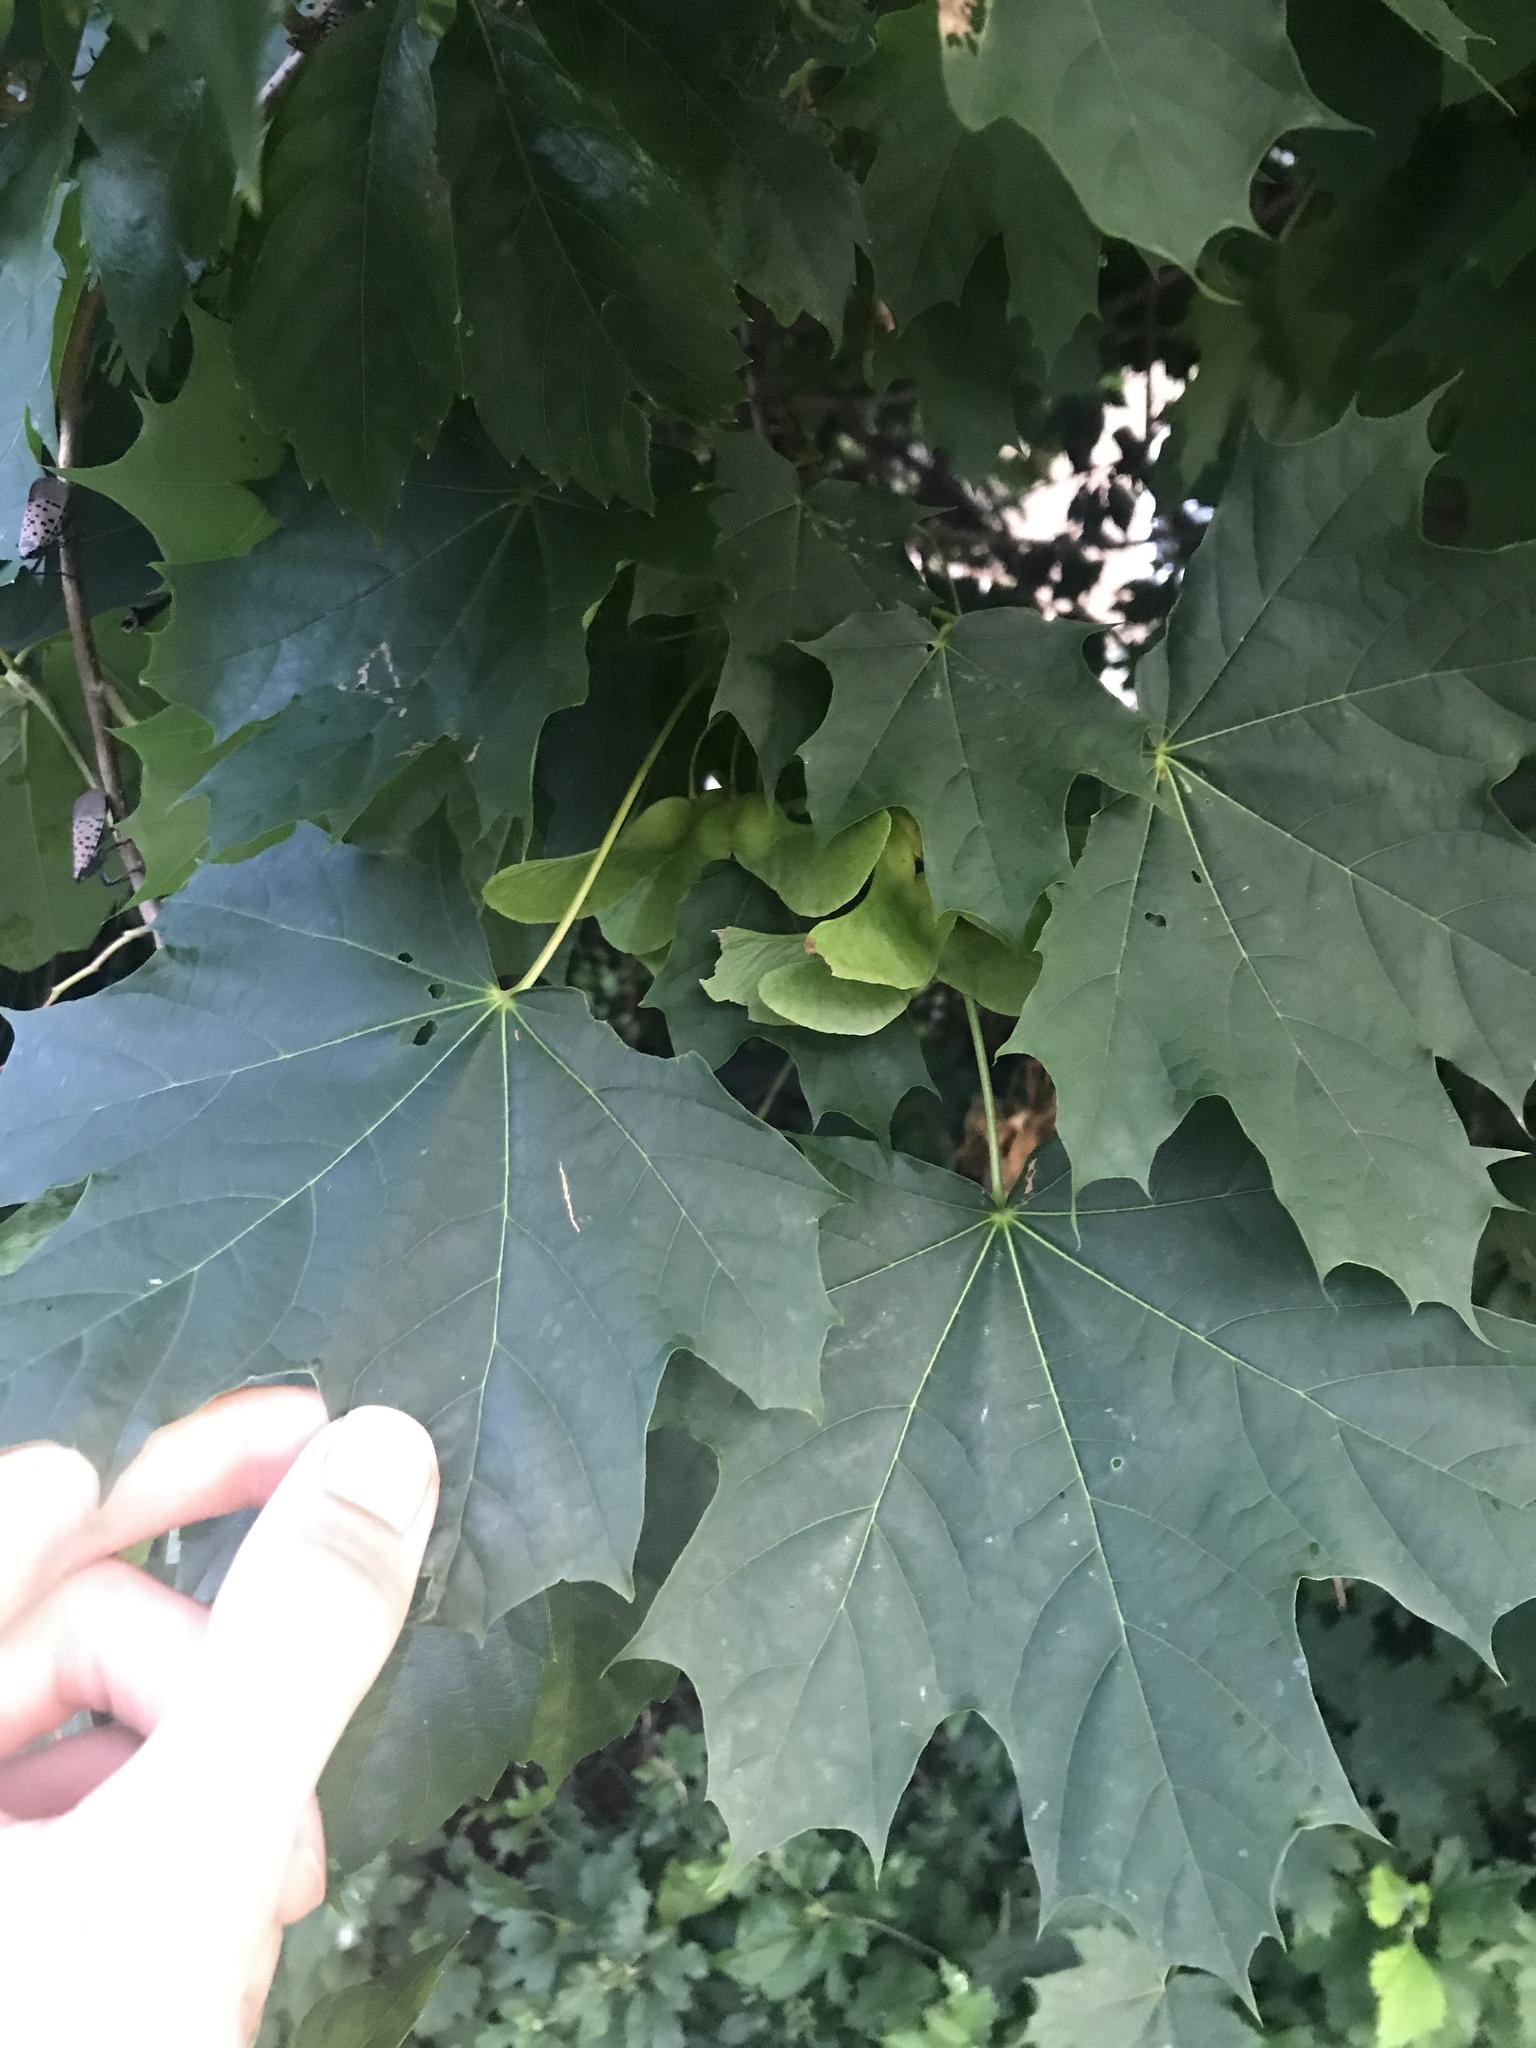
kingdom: Plantae
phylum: Tracheophyta
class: Magnoliopsida
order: Sapindales
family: Sapindaceae
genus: Acer
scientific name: Acer platanoides
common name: Norway maple
